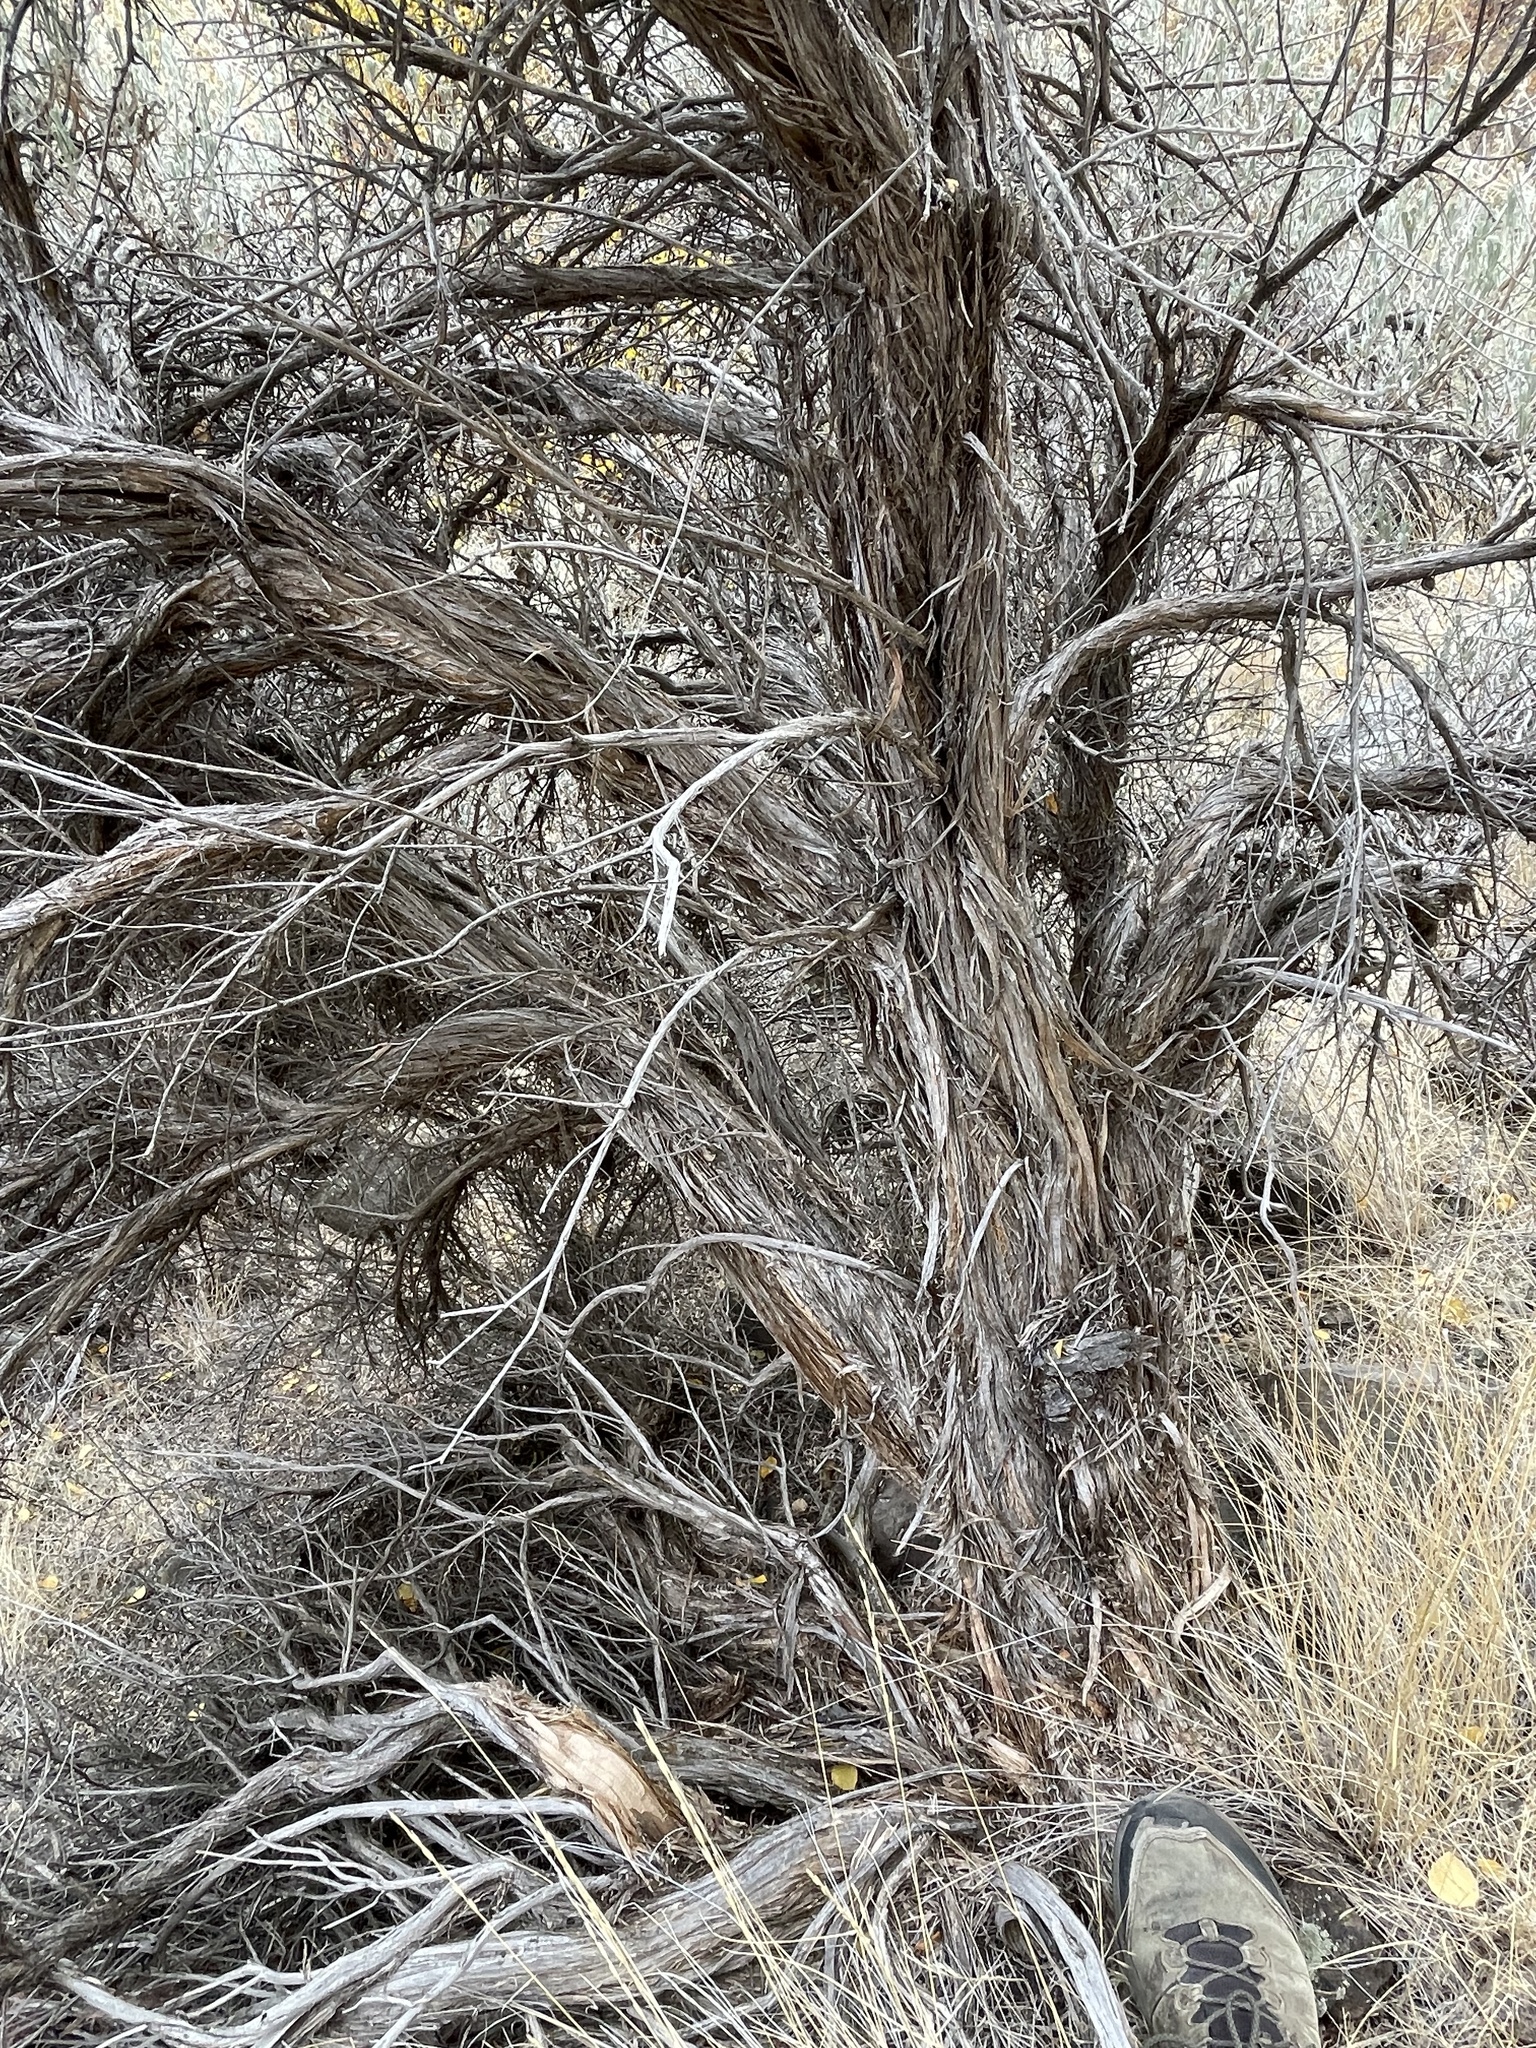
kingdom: Plantae
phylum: Tracheophyta
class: Magnoliopsida
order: Asterales
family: Asteraceae
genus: Artemisia
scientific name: Artemisia tridentata
